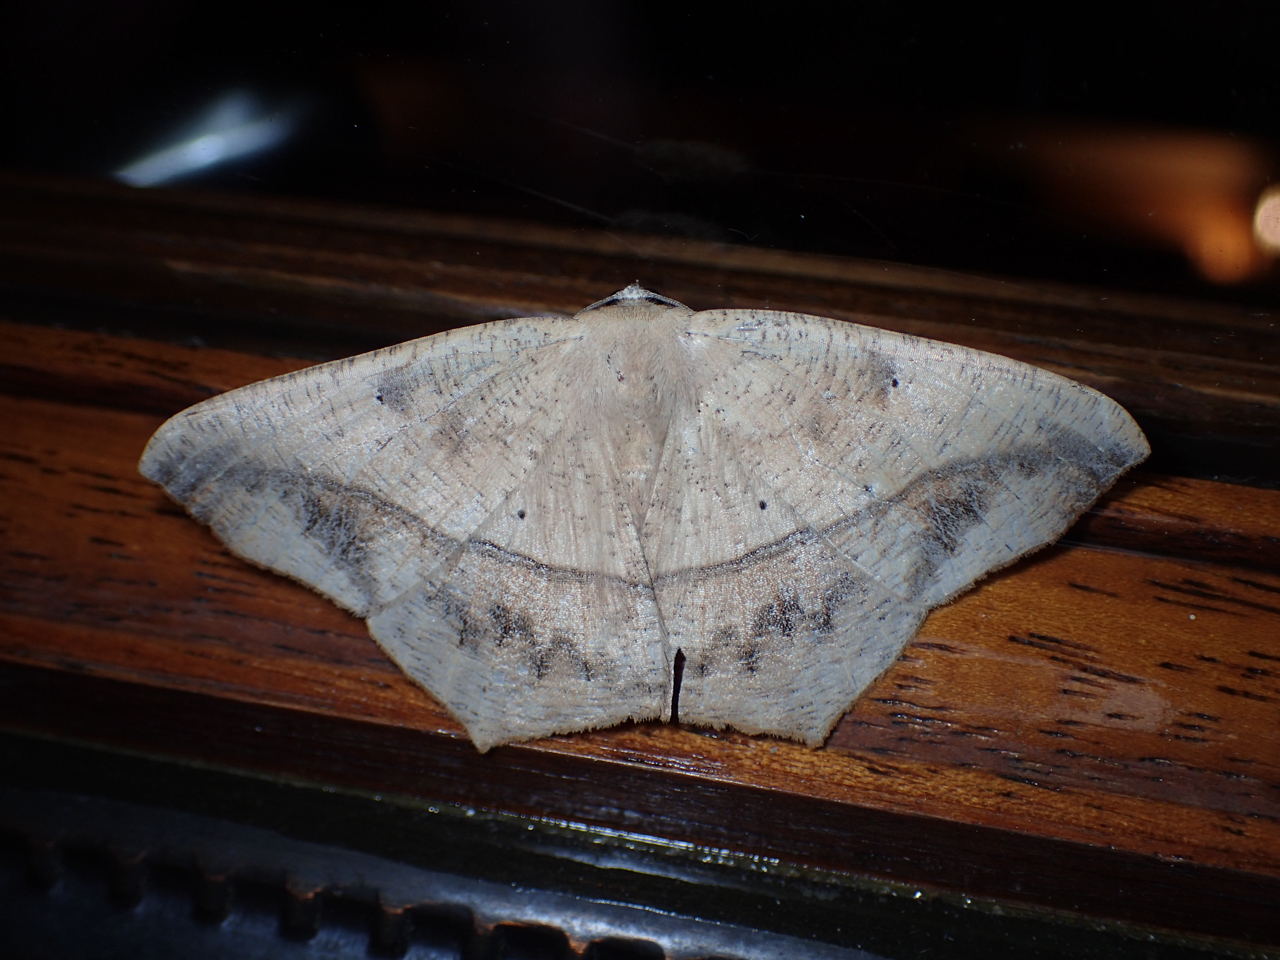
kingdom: Animalia
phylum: Arthropoda
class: Insecta
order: Lepidoptera
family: Geometridae
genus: Prochoerodes
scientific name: Prochoerodes lineola
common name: Large maple spanworm
